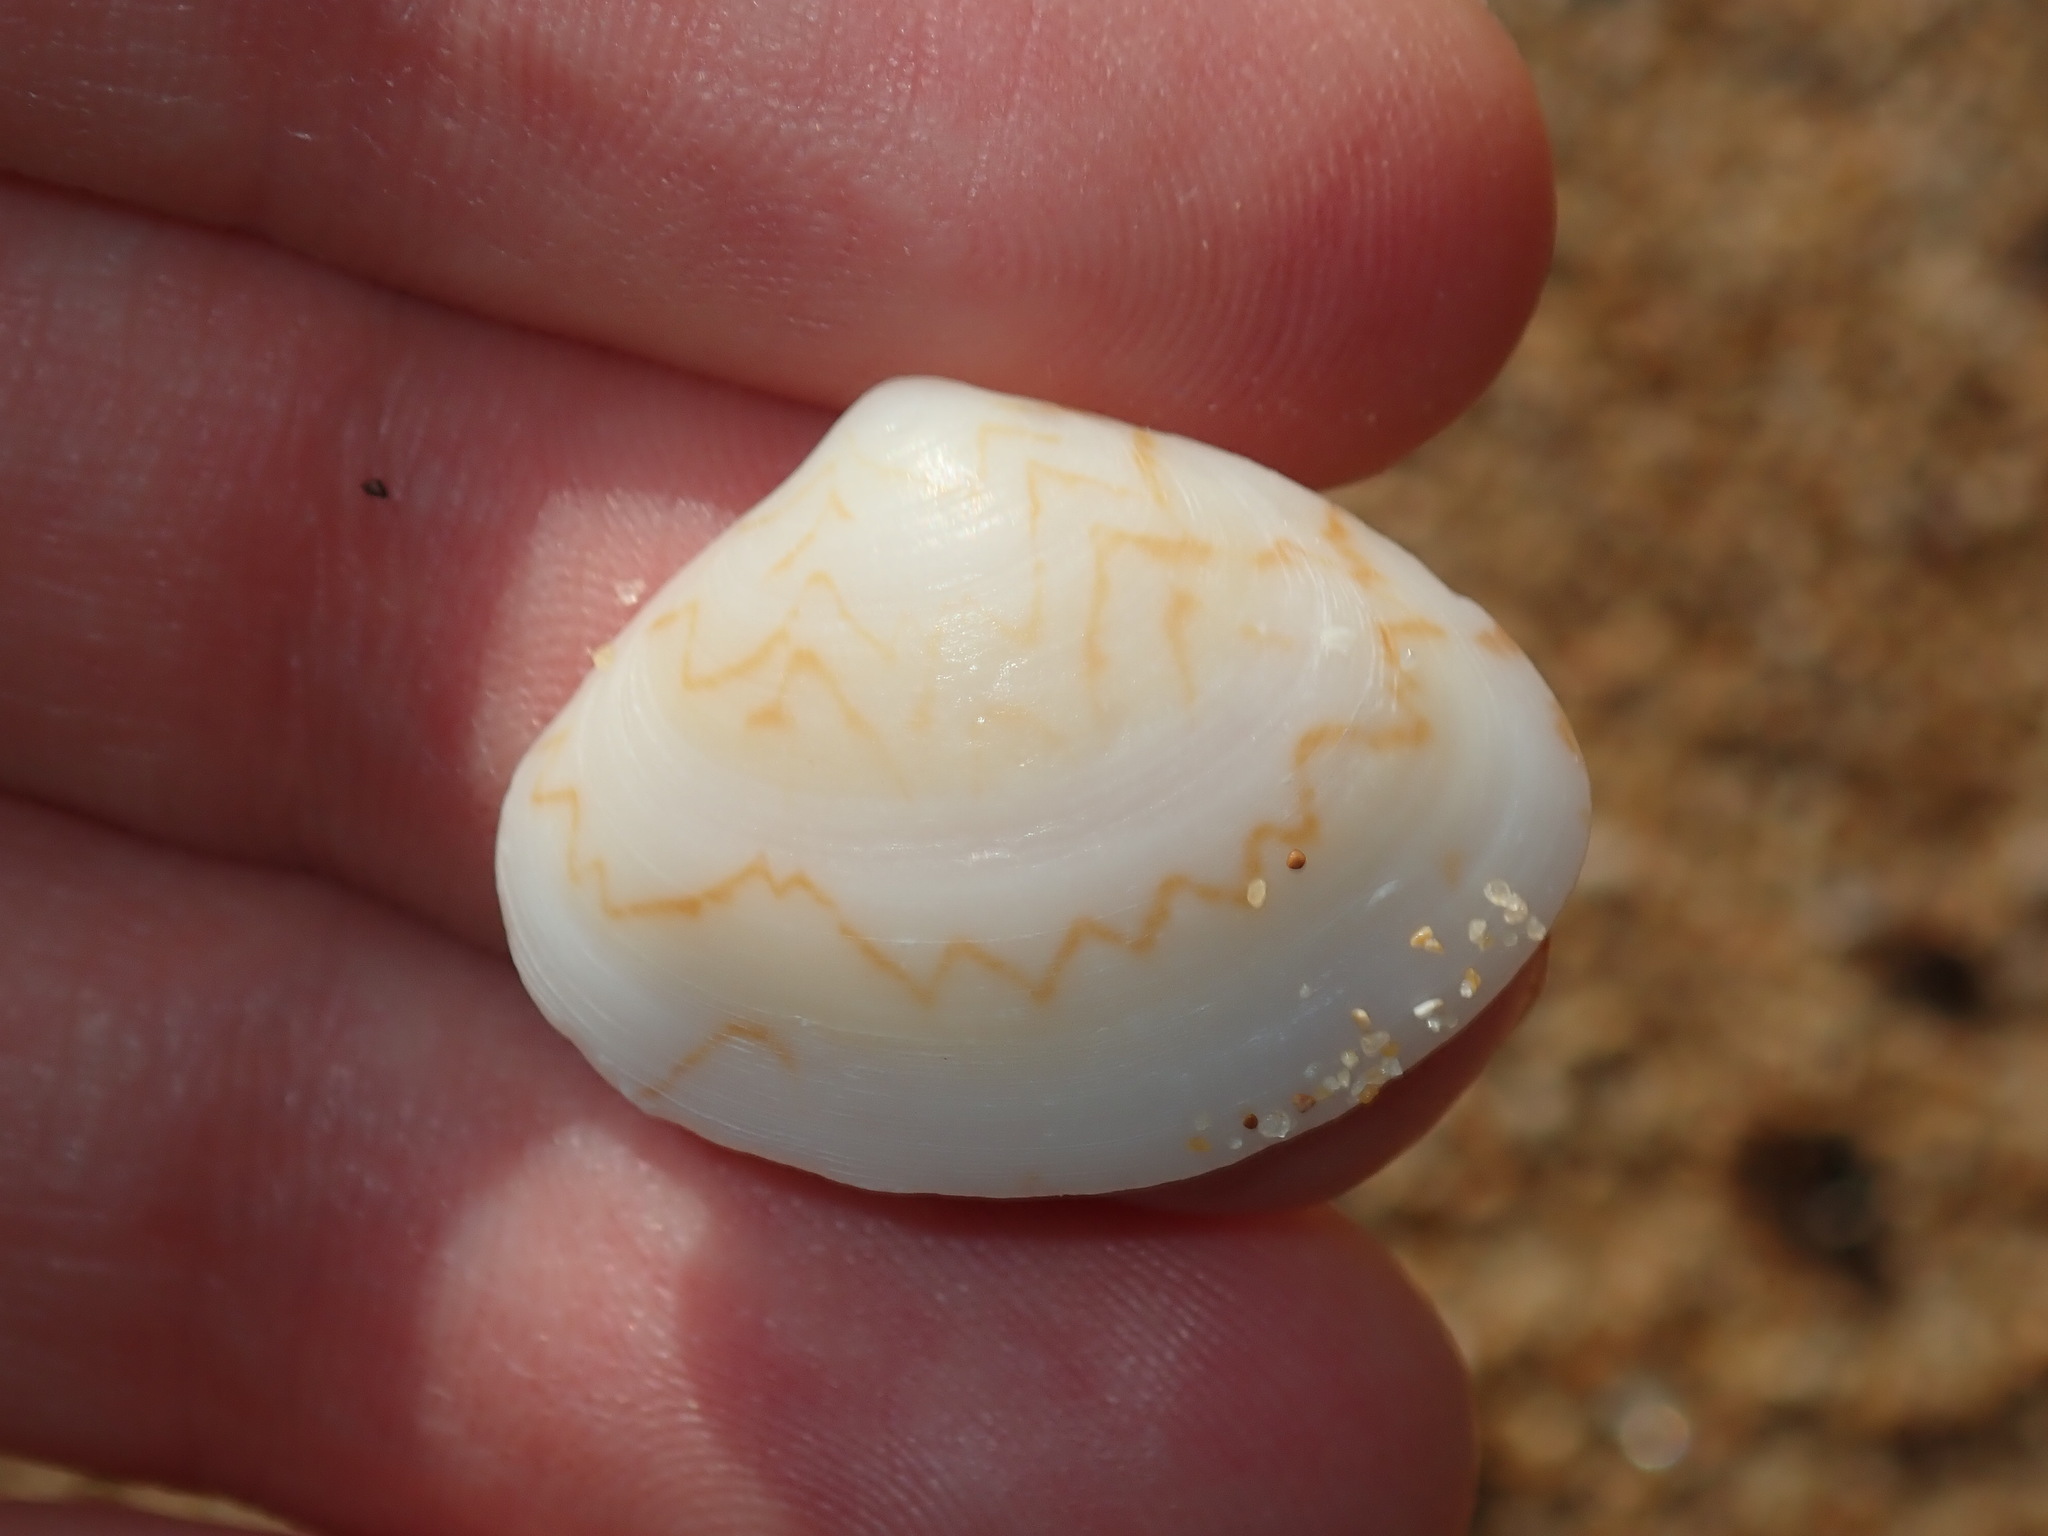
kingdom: Animalia
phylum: Mollusca
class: Bivalvia
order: Venerida
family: Veneridae
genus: Gomphina
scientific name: Gomphina undulosa
